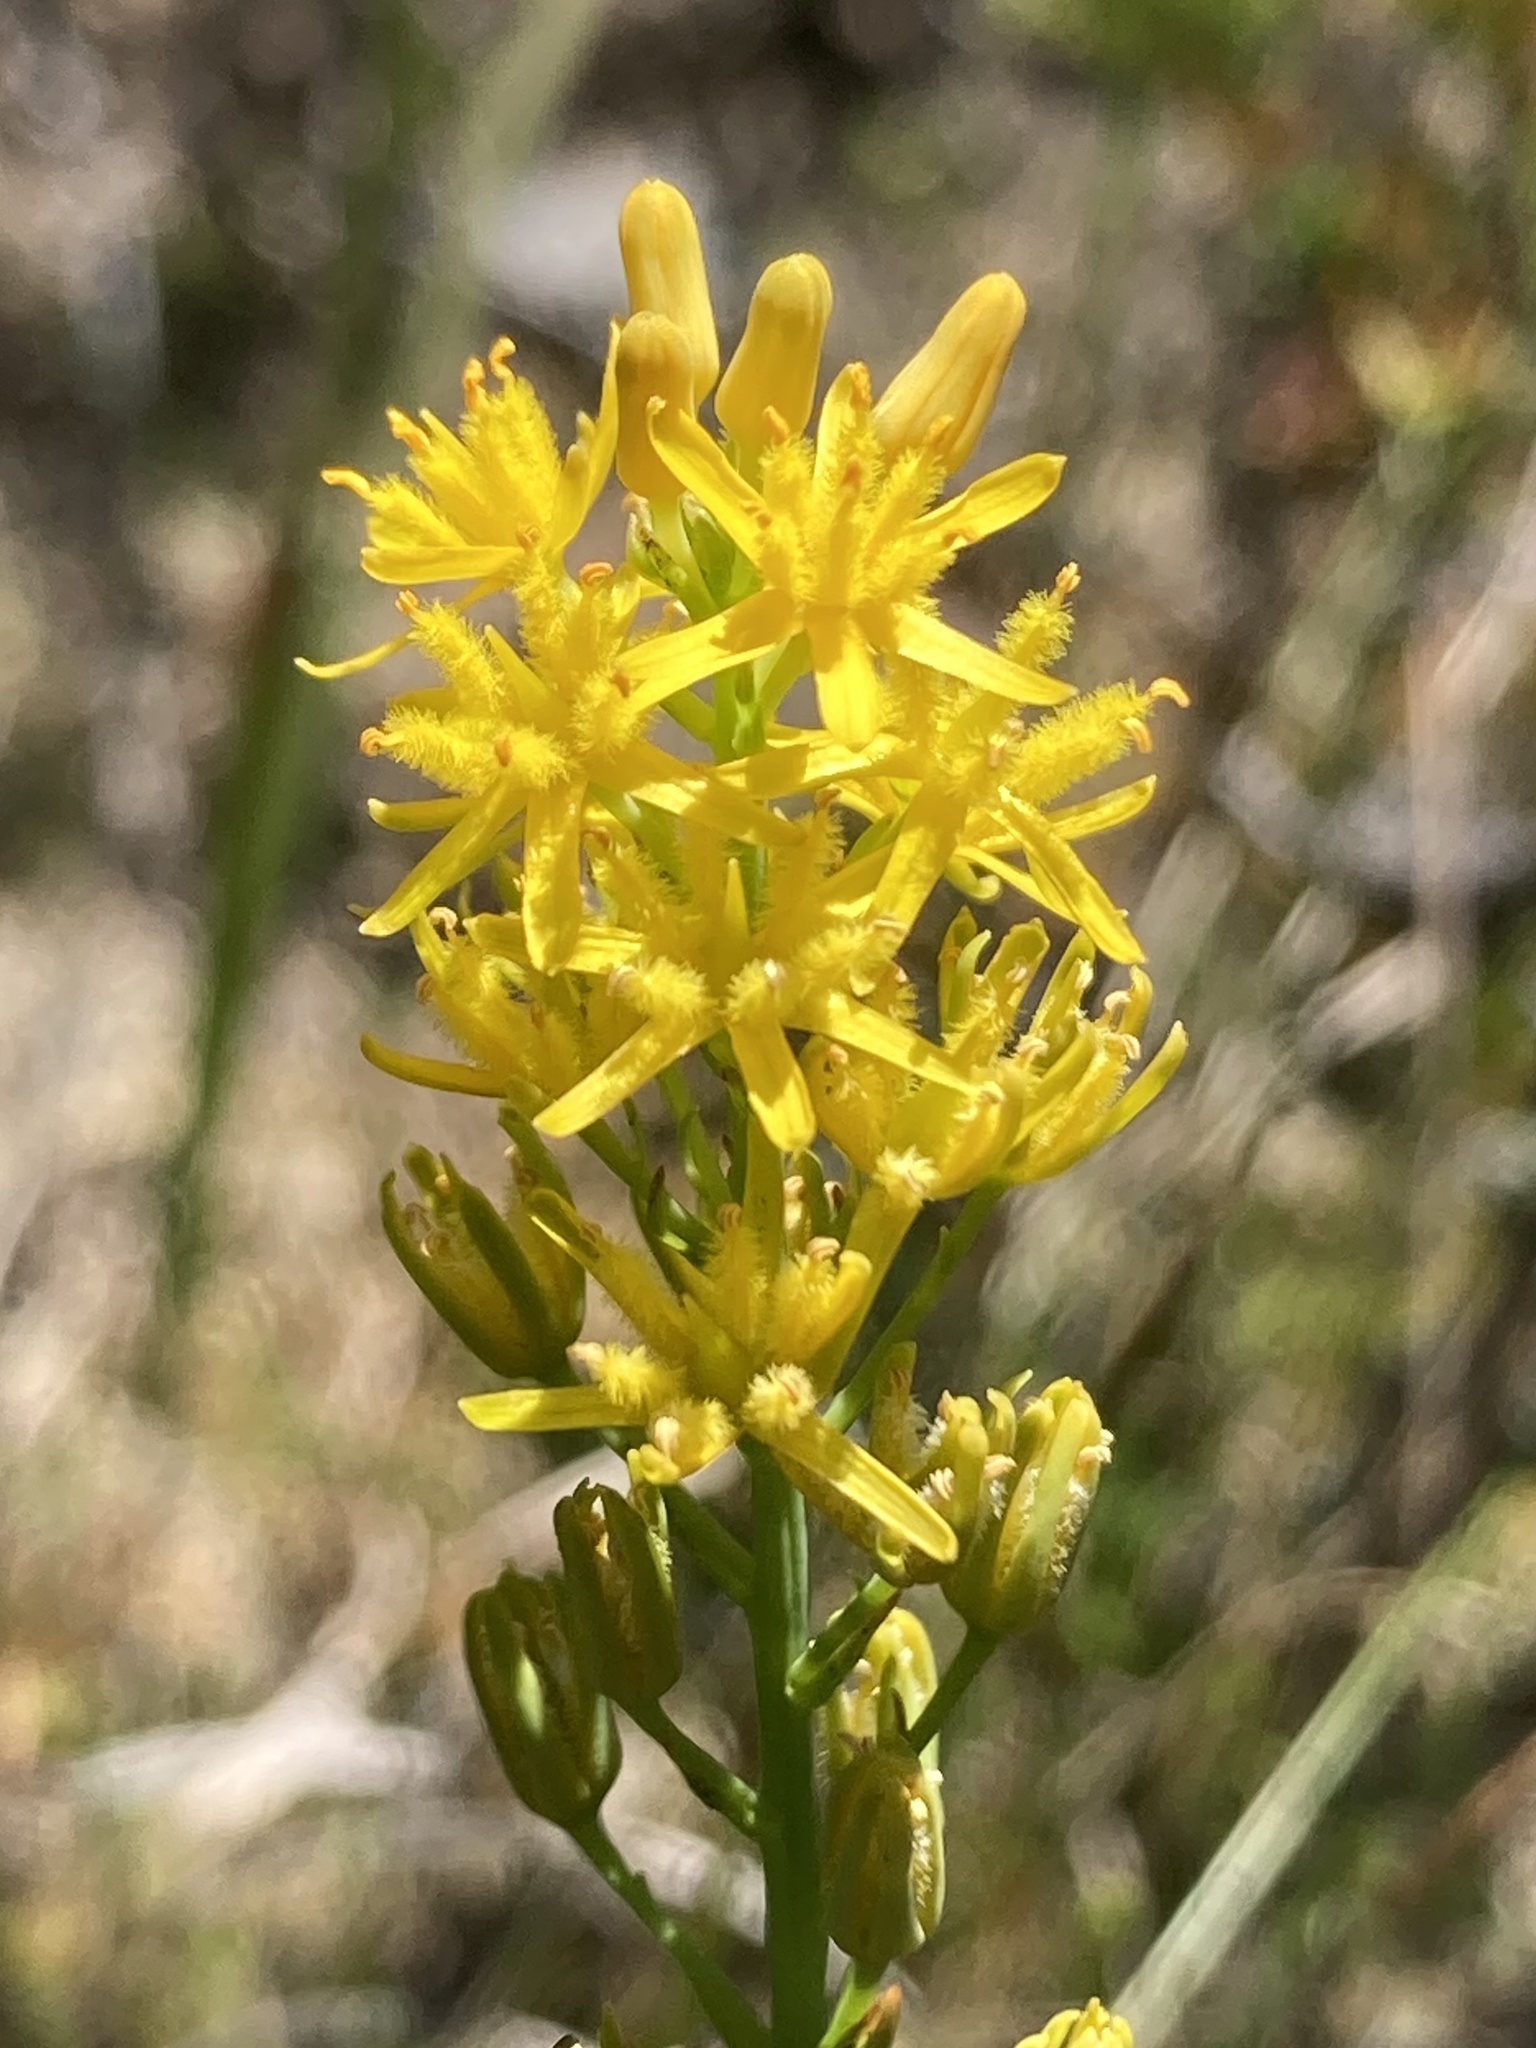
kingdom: Plantae
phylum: Tracheophyta
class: Liliopsida
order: Dioscoreales
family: Nartheciaceae
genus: Narthecium
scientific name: Narthecium americanum
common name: Bog-asphodel
